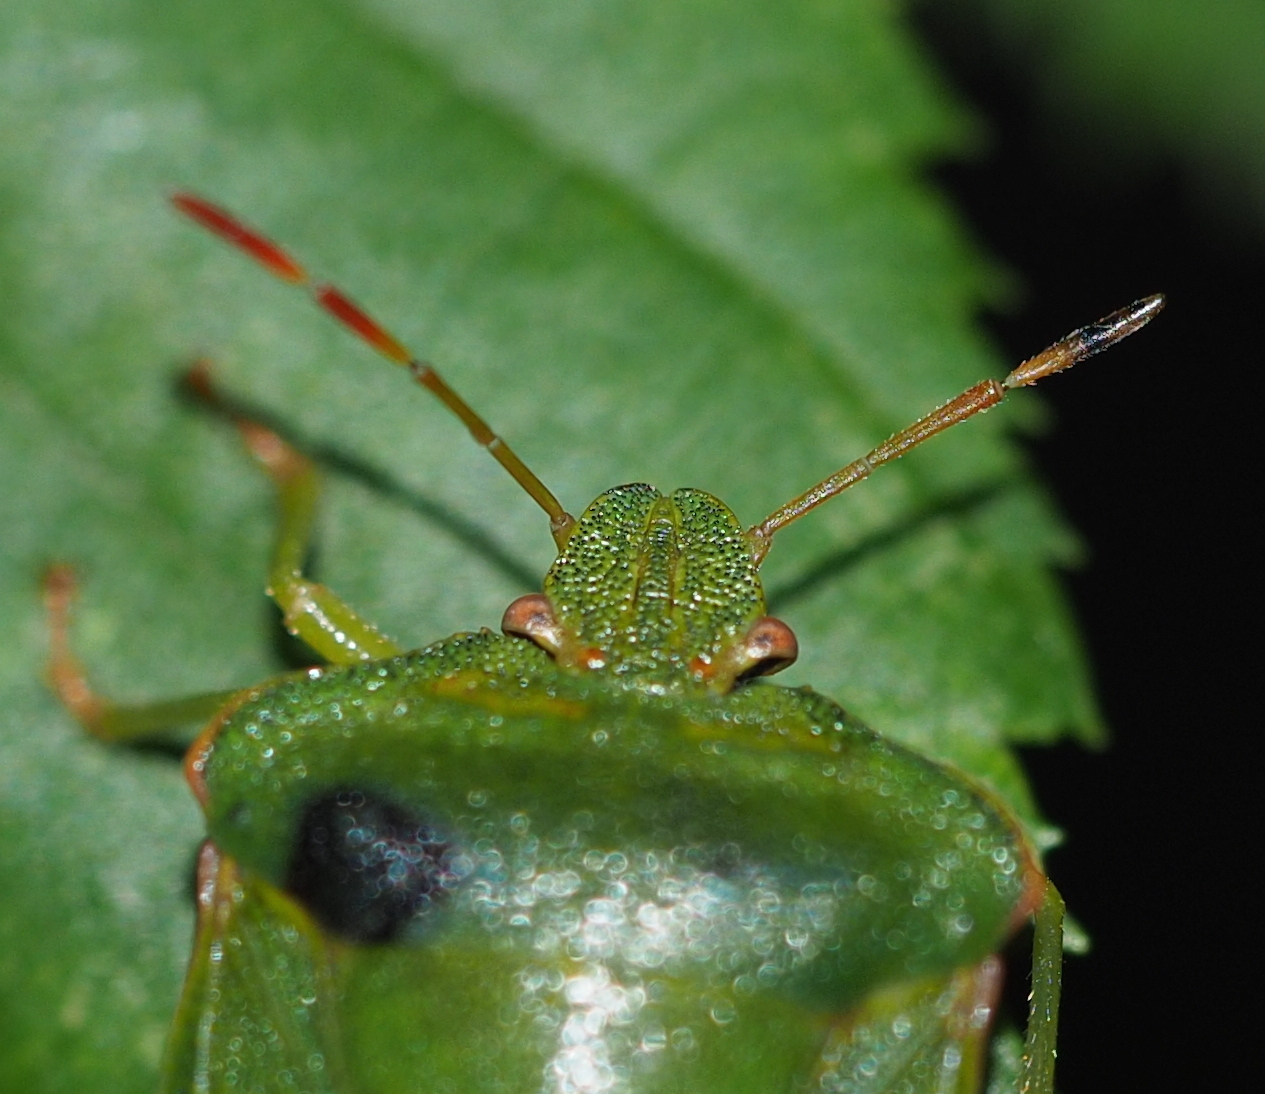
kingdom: Animalia
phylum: Arthropoda
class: Insecta
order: Hemiptera
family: Pentatomidae
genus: Palomena
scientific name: Palomena prasina
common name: Green shieldbug
